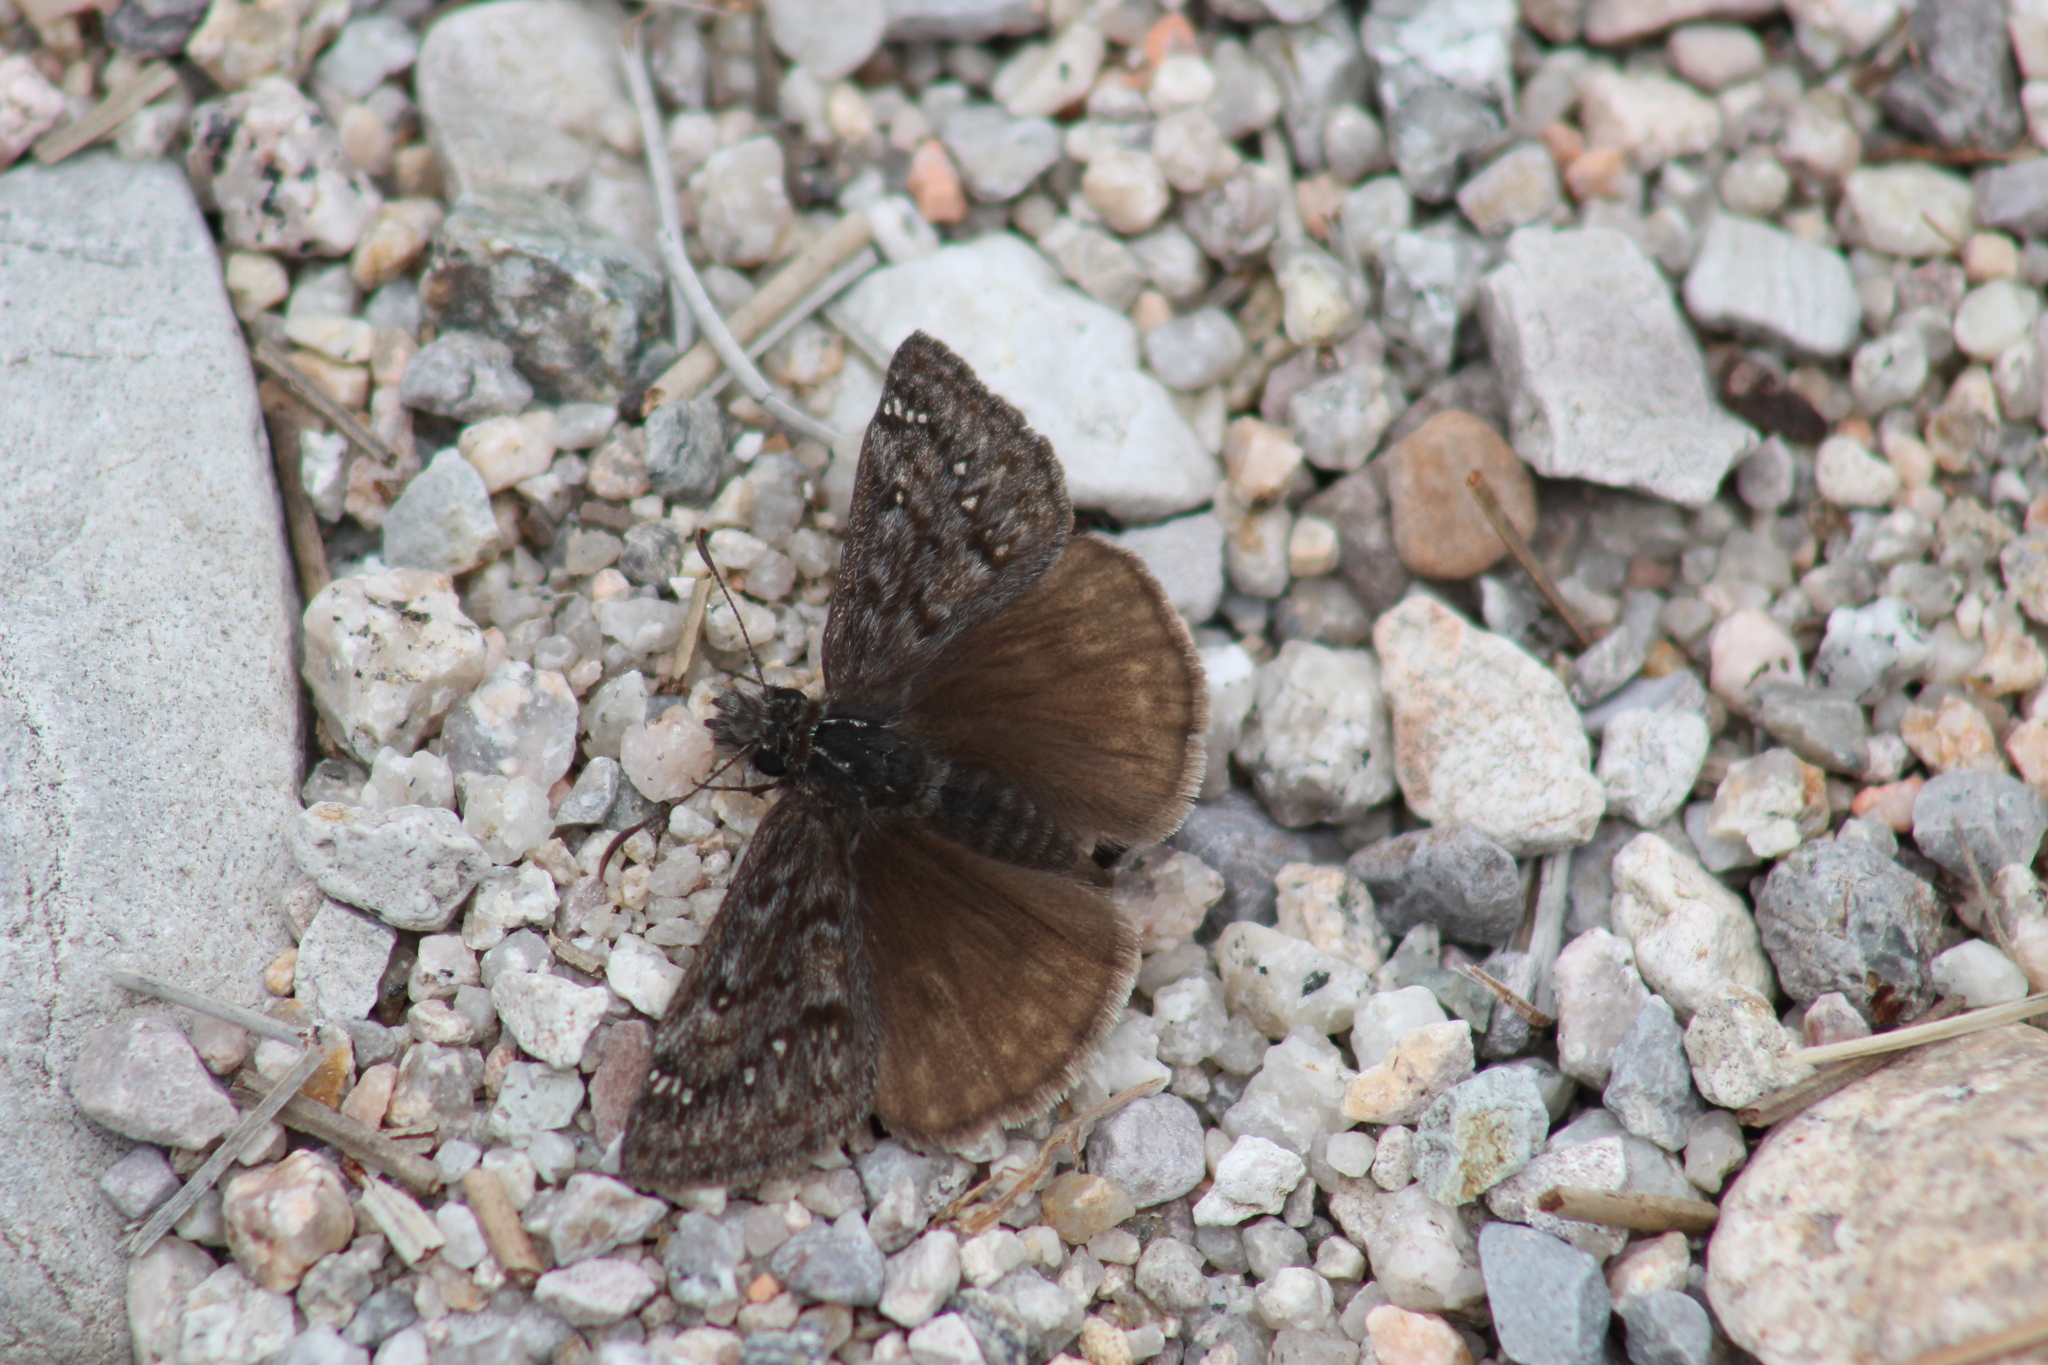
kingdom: Animalia
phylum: Arthropoda
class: Insecta
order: Lepidoptera
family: Hesperiidae
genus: Erynnis
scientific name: Erynnis propertius
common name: Propertius duskywing
